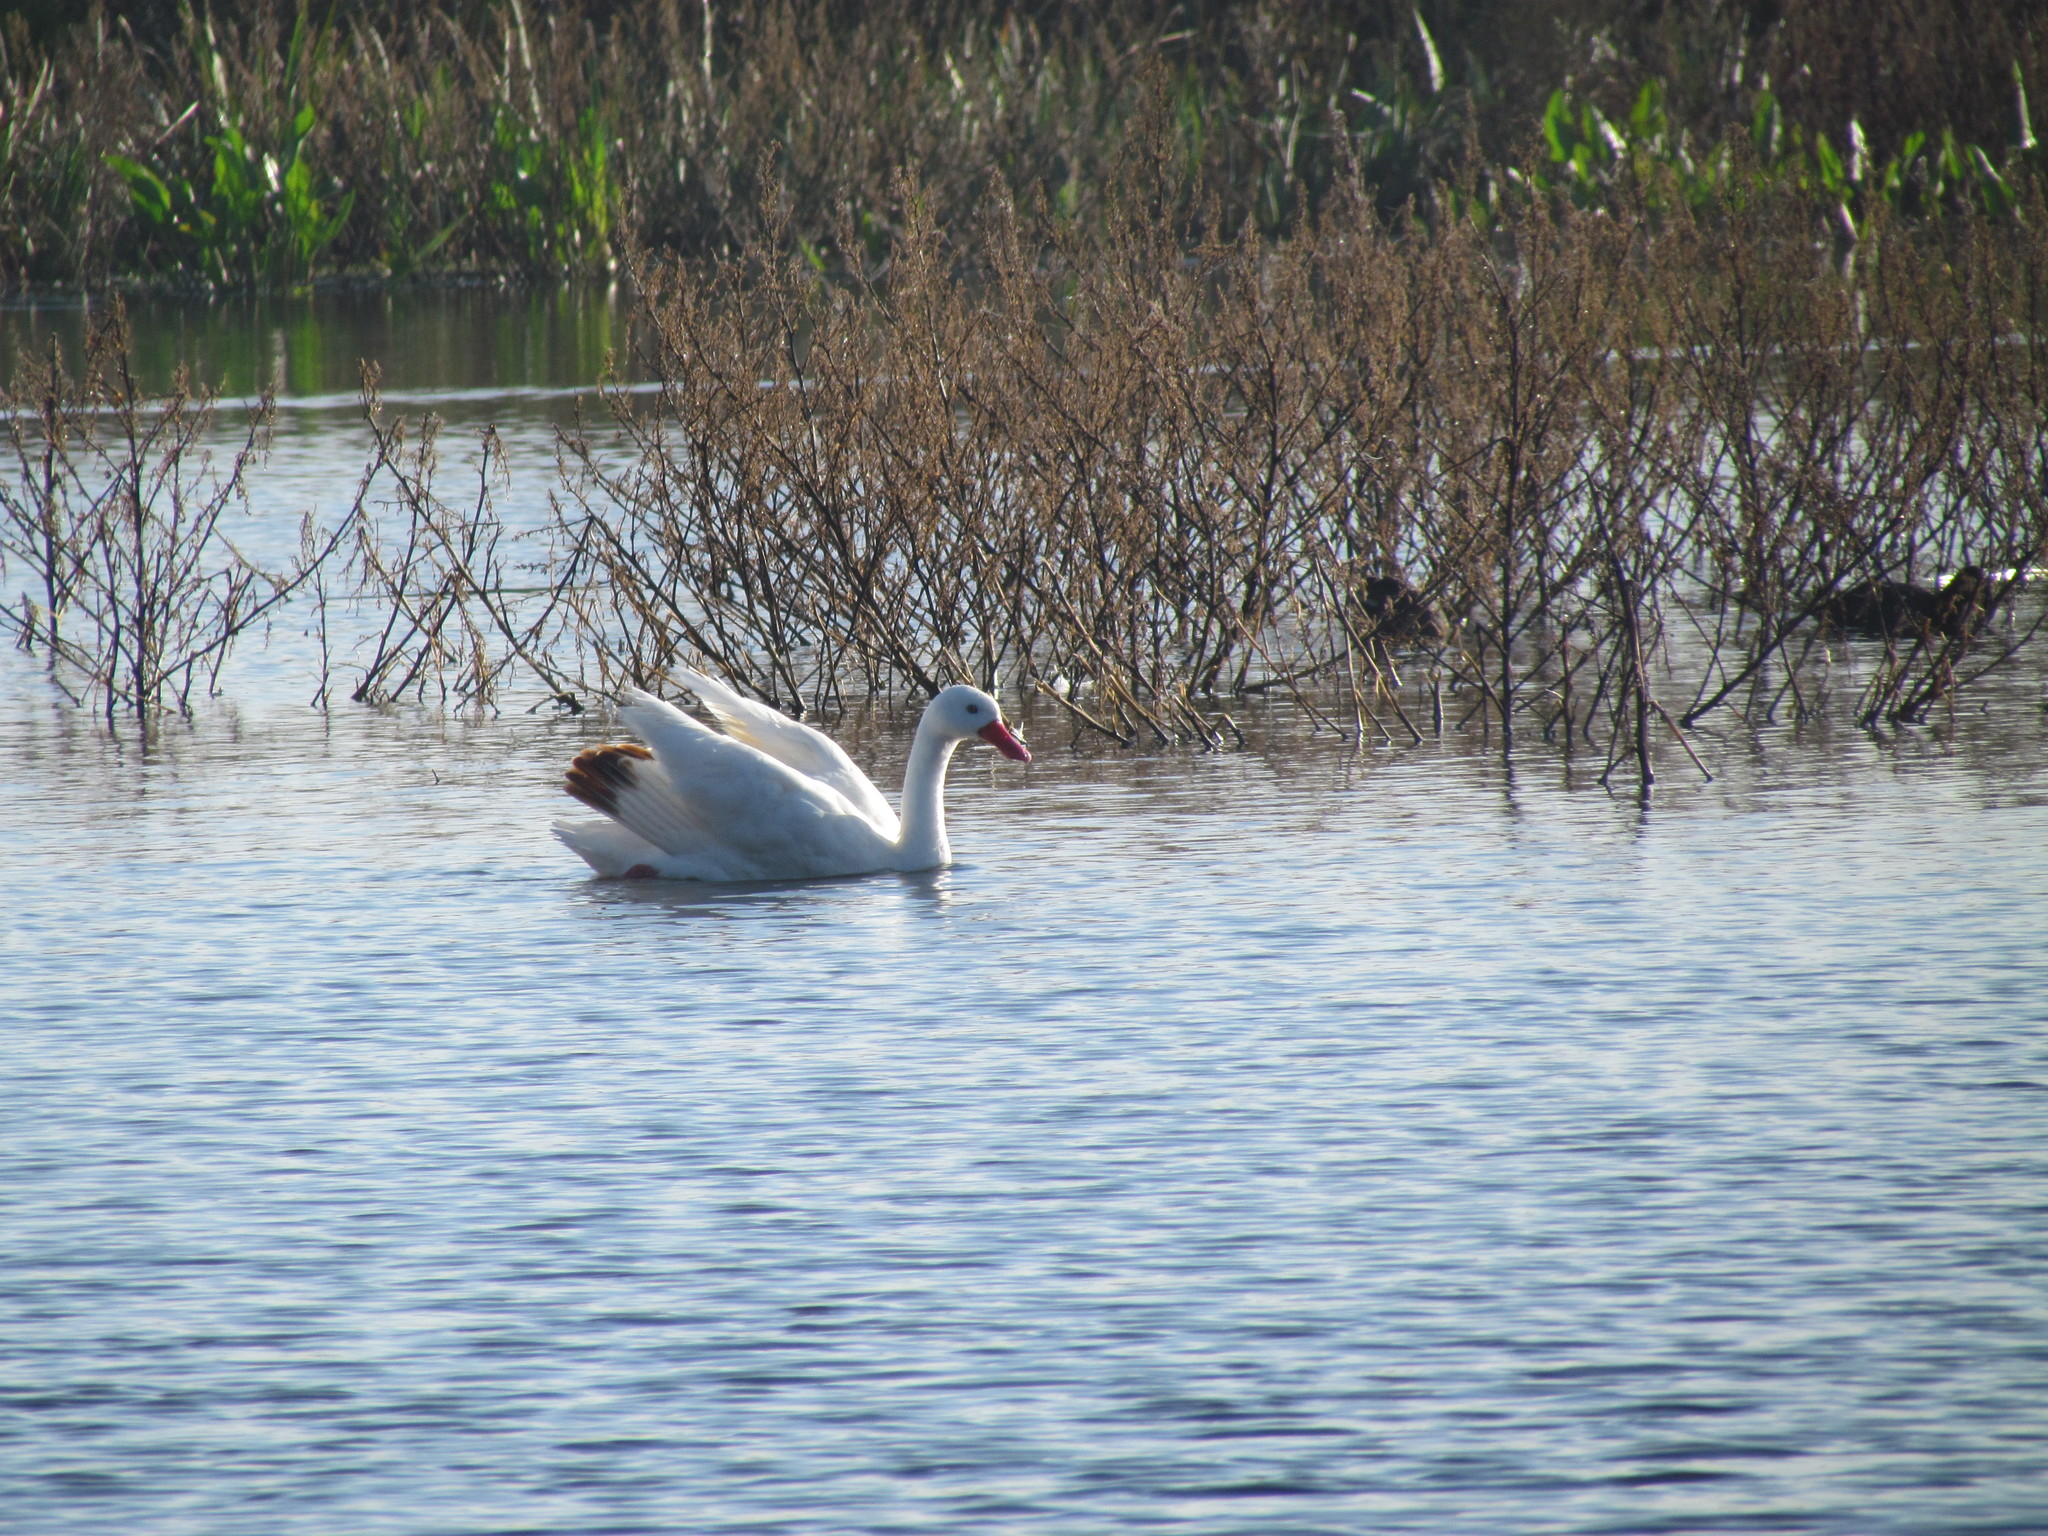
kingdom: Animalia
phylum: Chordata
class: Aves
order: Anseriformes
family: Anatidae
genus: Coscoroba
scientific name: Coscoroba coscoroba
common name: Coscoroba swan
